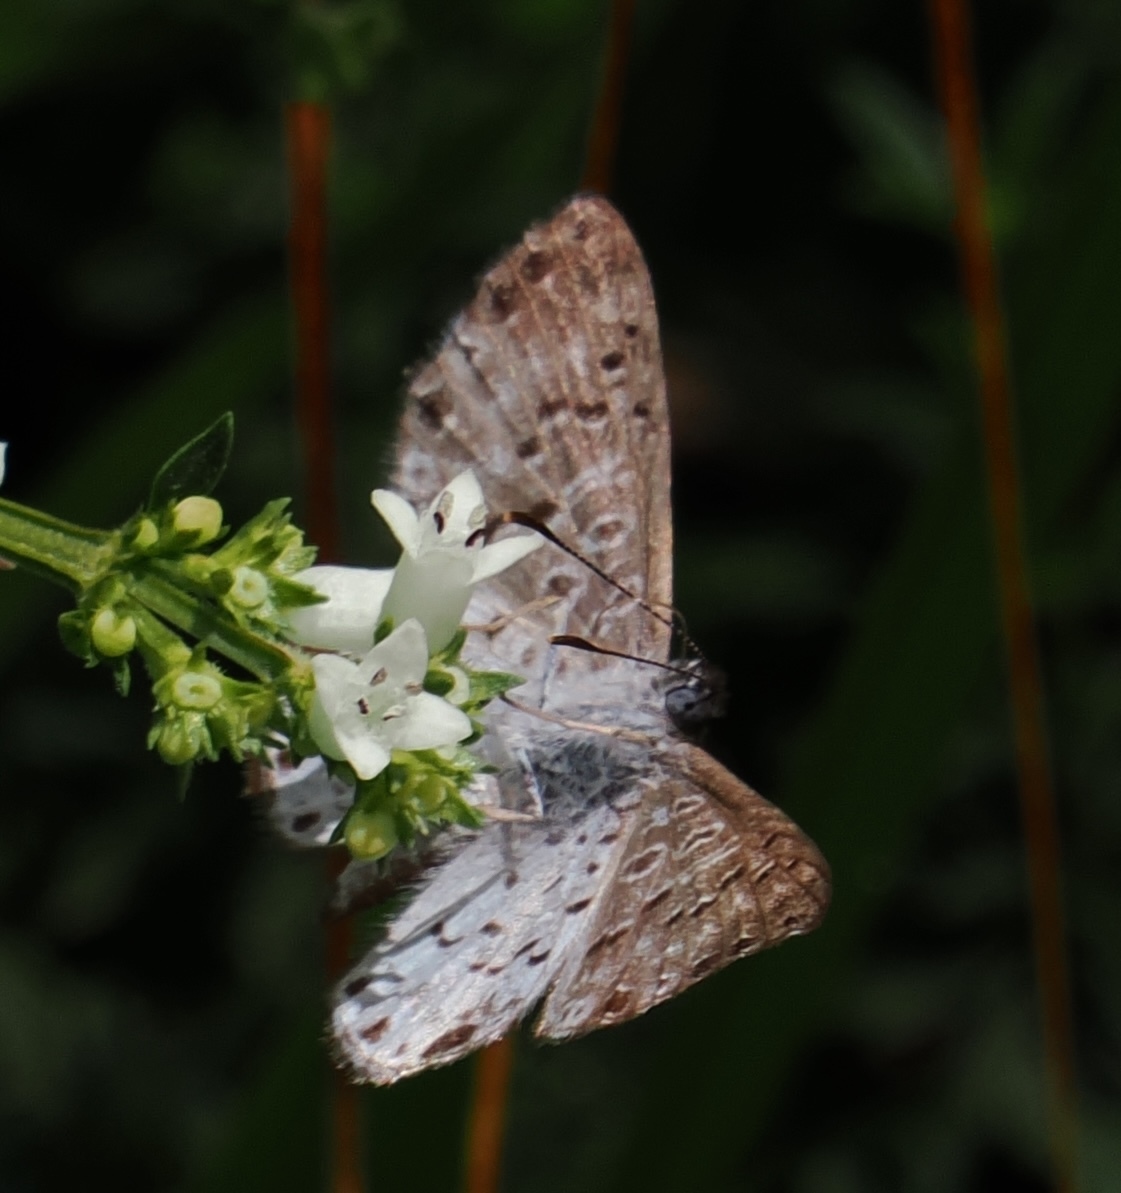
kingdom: Animalia
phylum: Arthropoda
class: Insecta
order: Lepidoptera
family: Riodinidae
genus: Catocyclotis
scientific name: Catocyclotis
